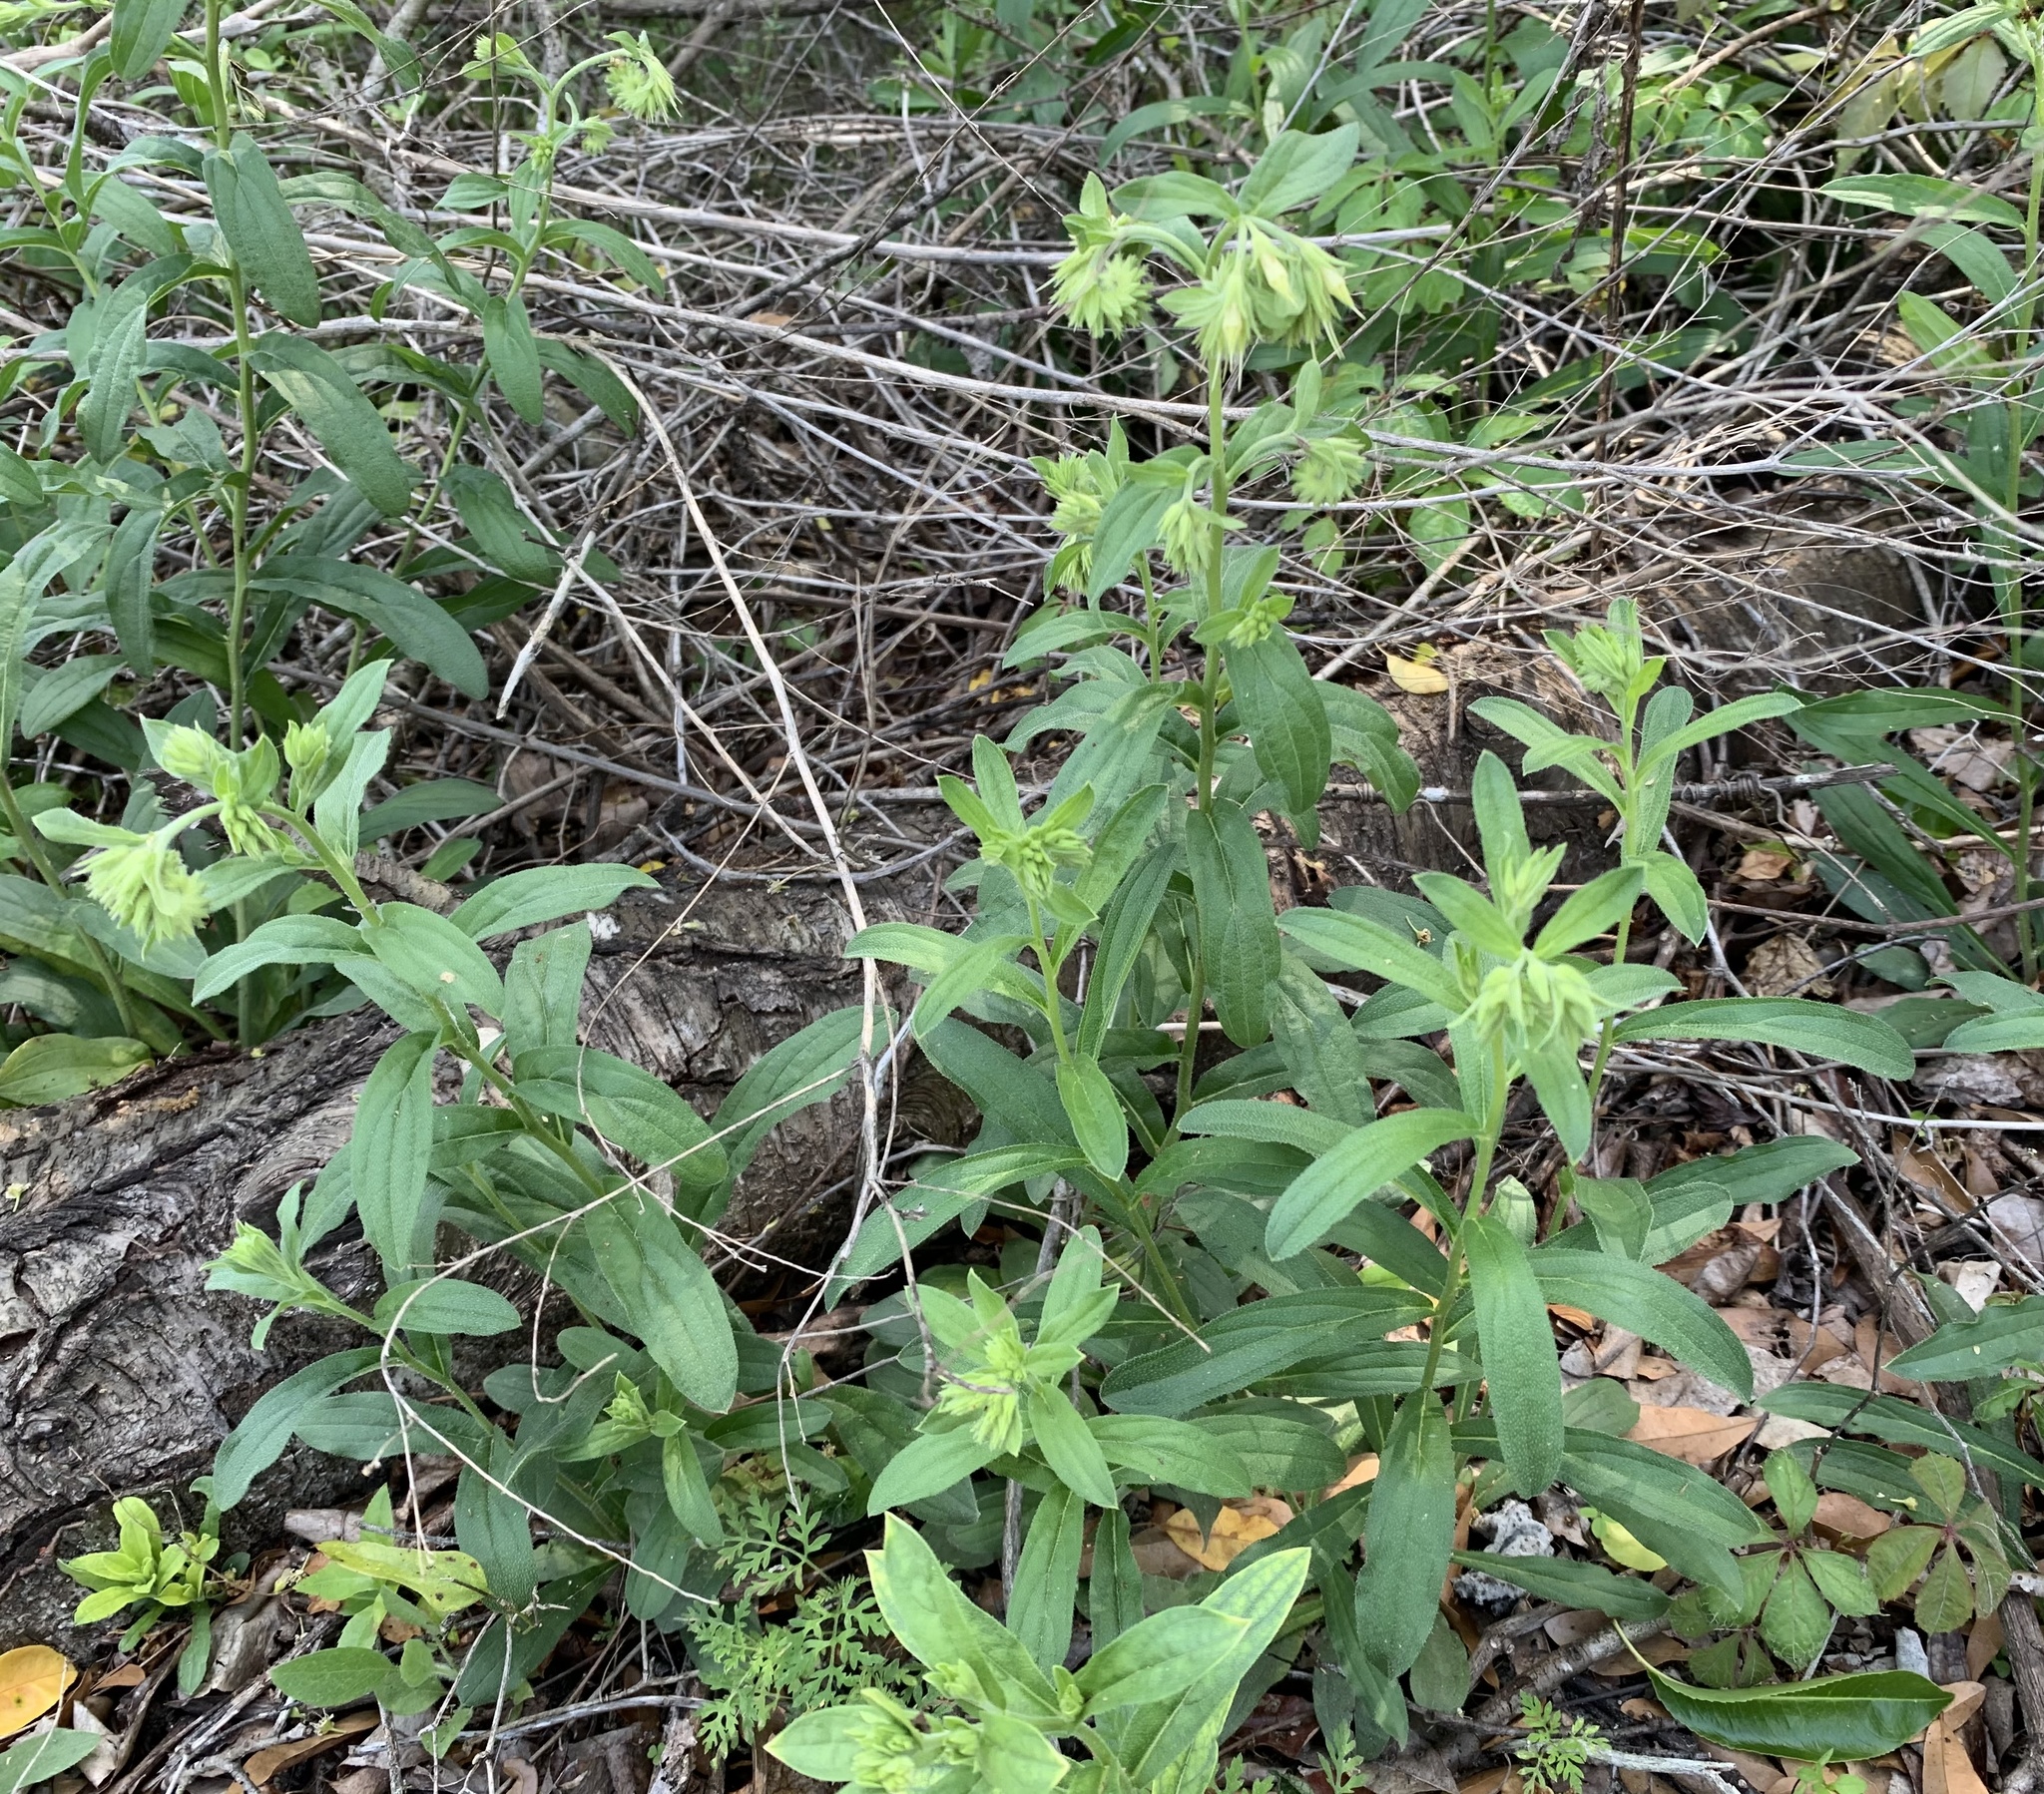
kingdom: Plantae
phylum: Tracheophyta
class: Magnoliopsida
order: Boraginales
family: Boraginaceae
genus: Lithospermum
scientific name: Lithospermum virginianum
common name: Eastern false gromwell
